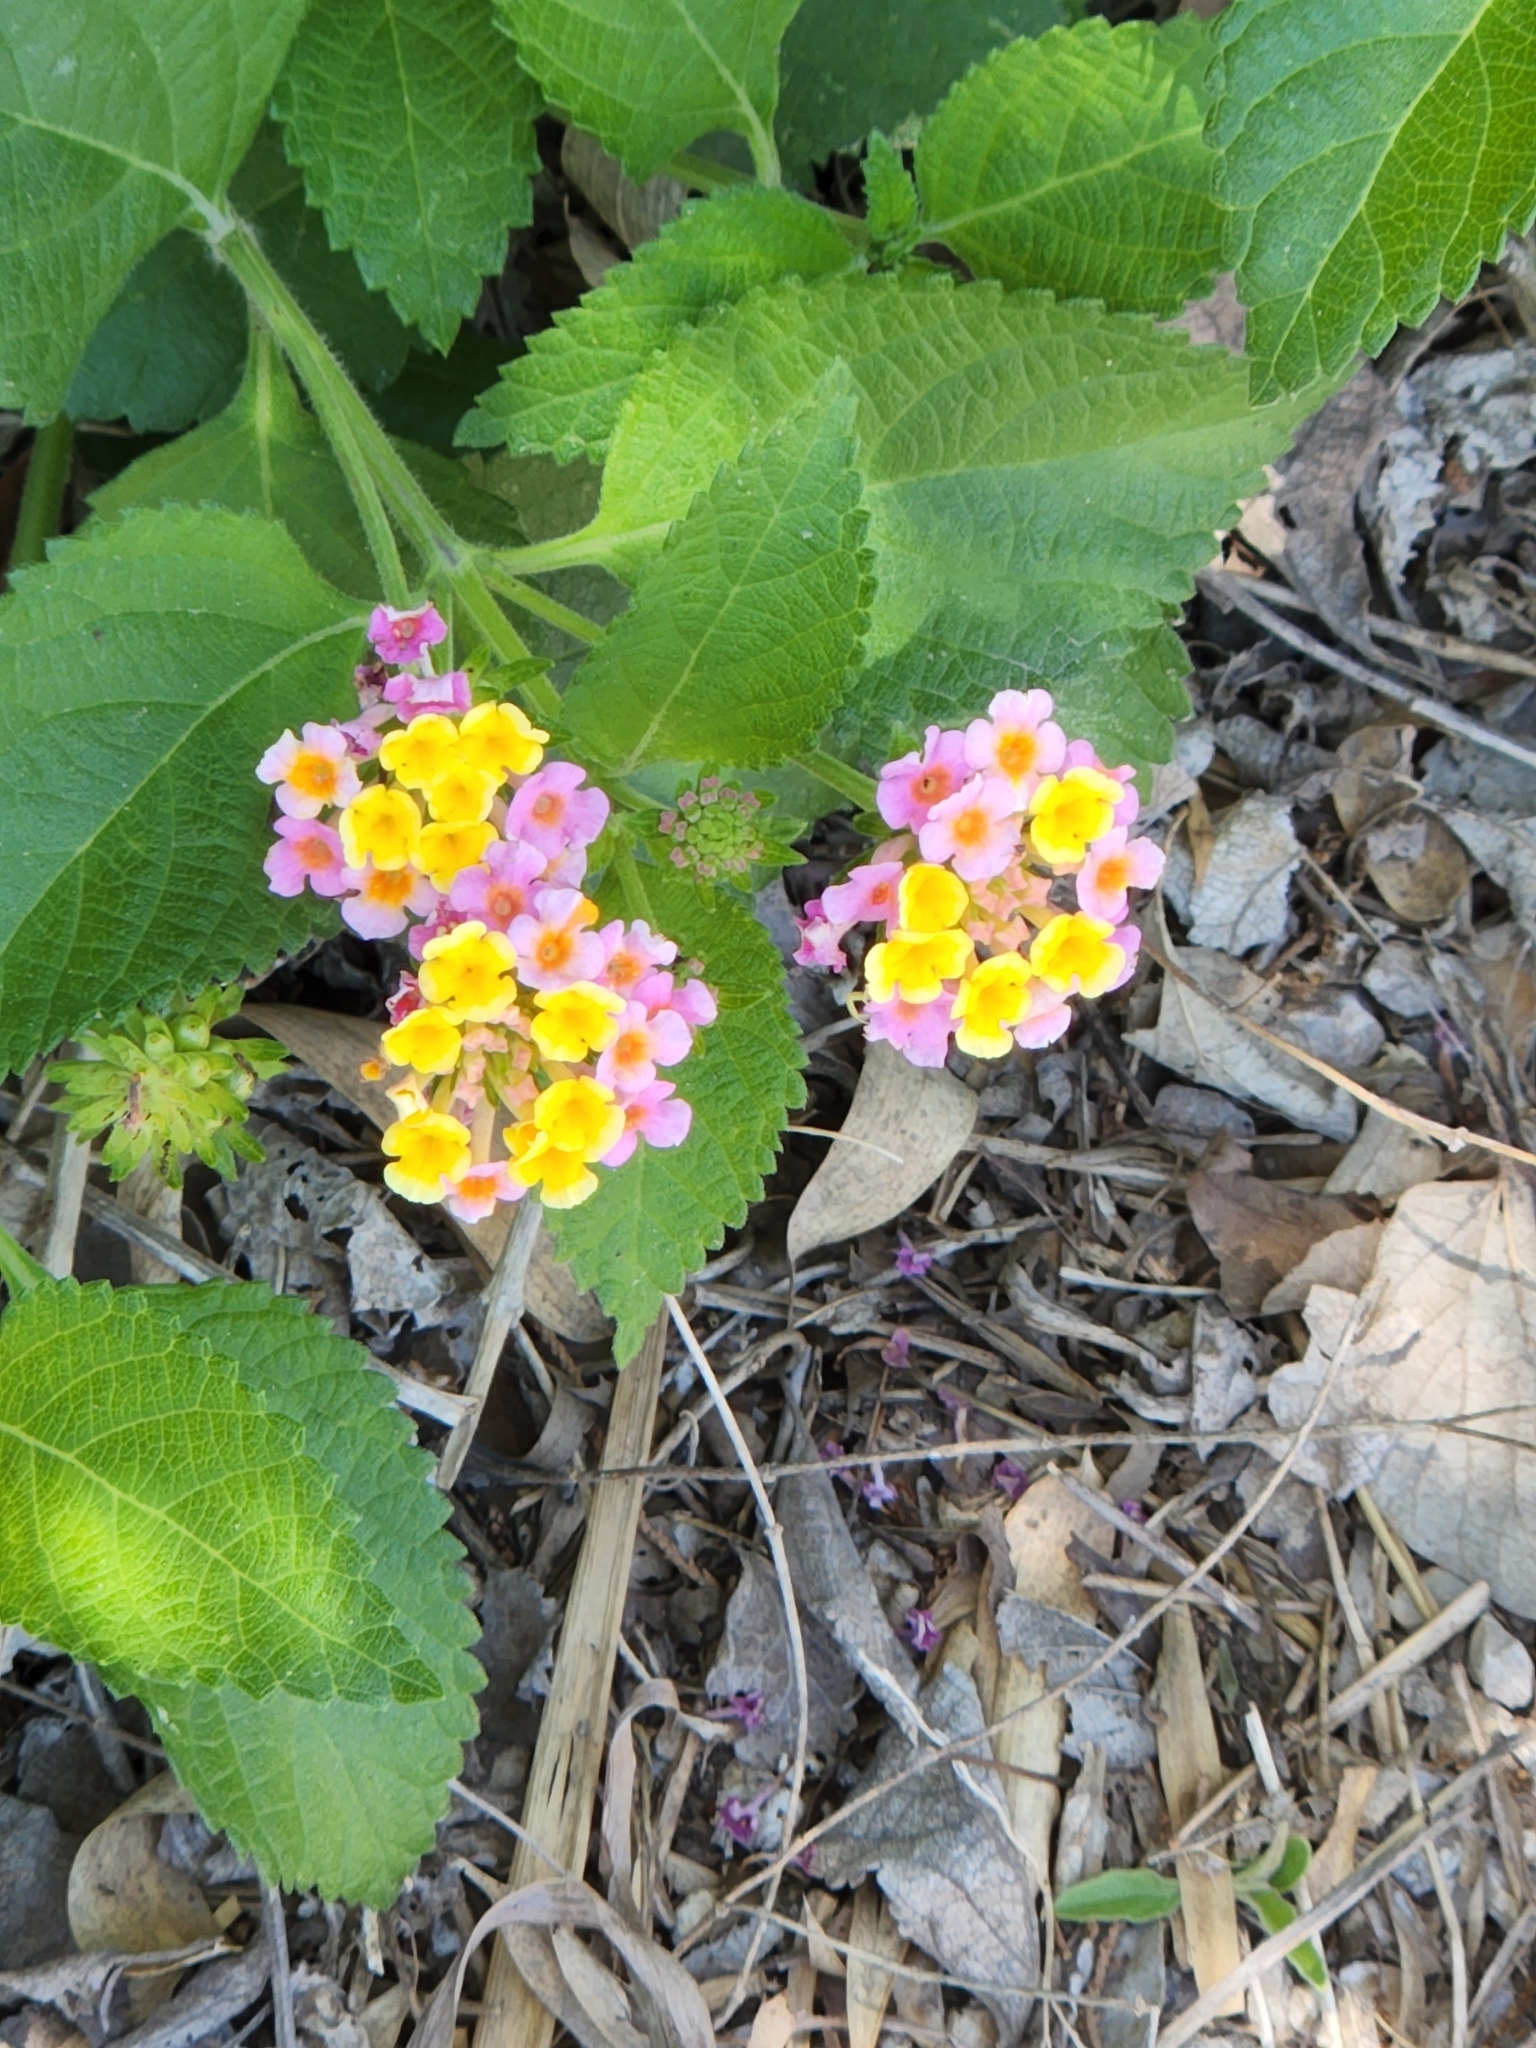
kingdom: Plantae
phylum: Tracheophyta
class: Magnoliopsida
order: Lamiales
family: Verbenaceae
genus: Lantana
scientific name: Lantana strigocamara
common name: Lantana
